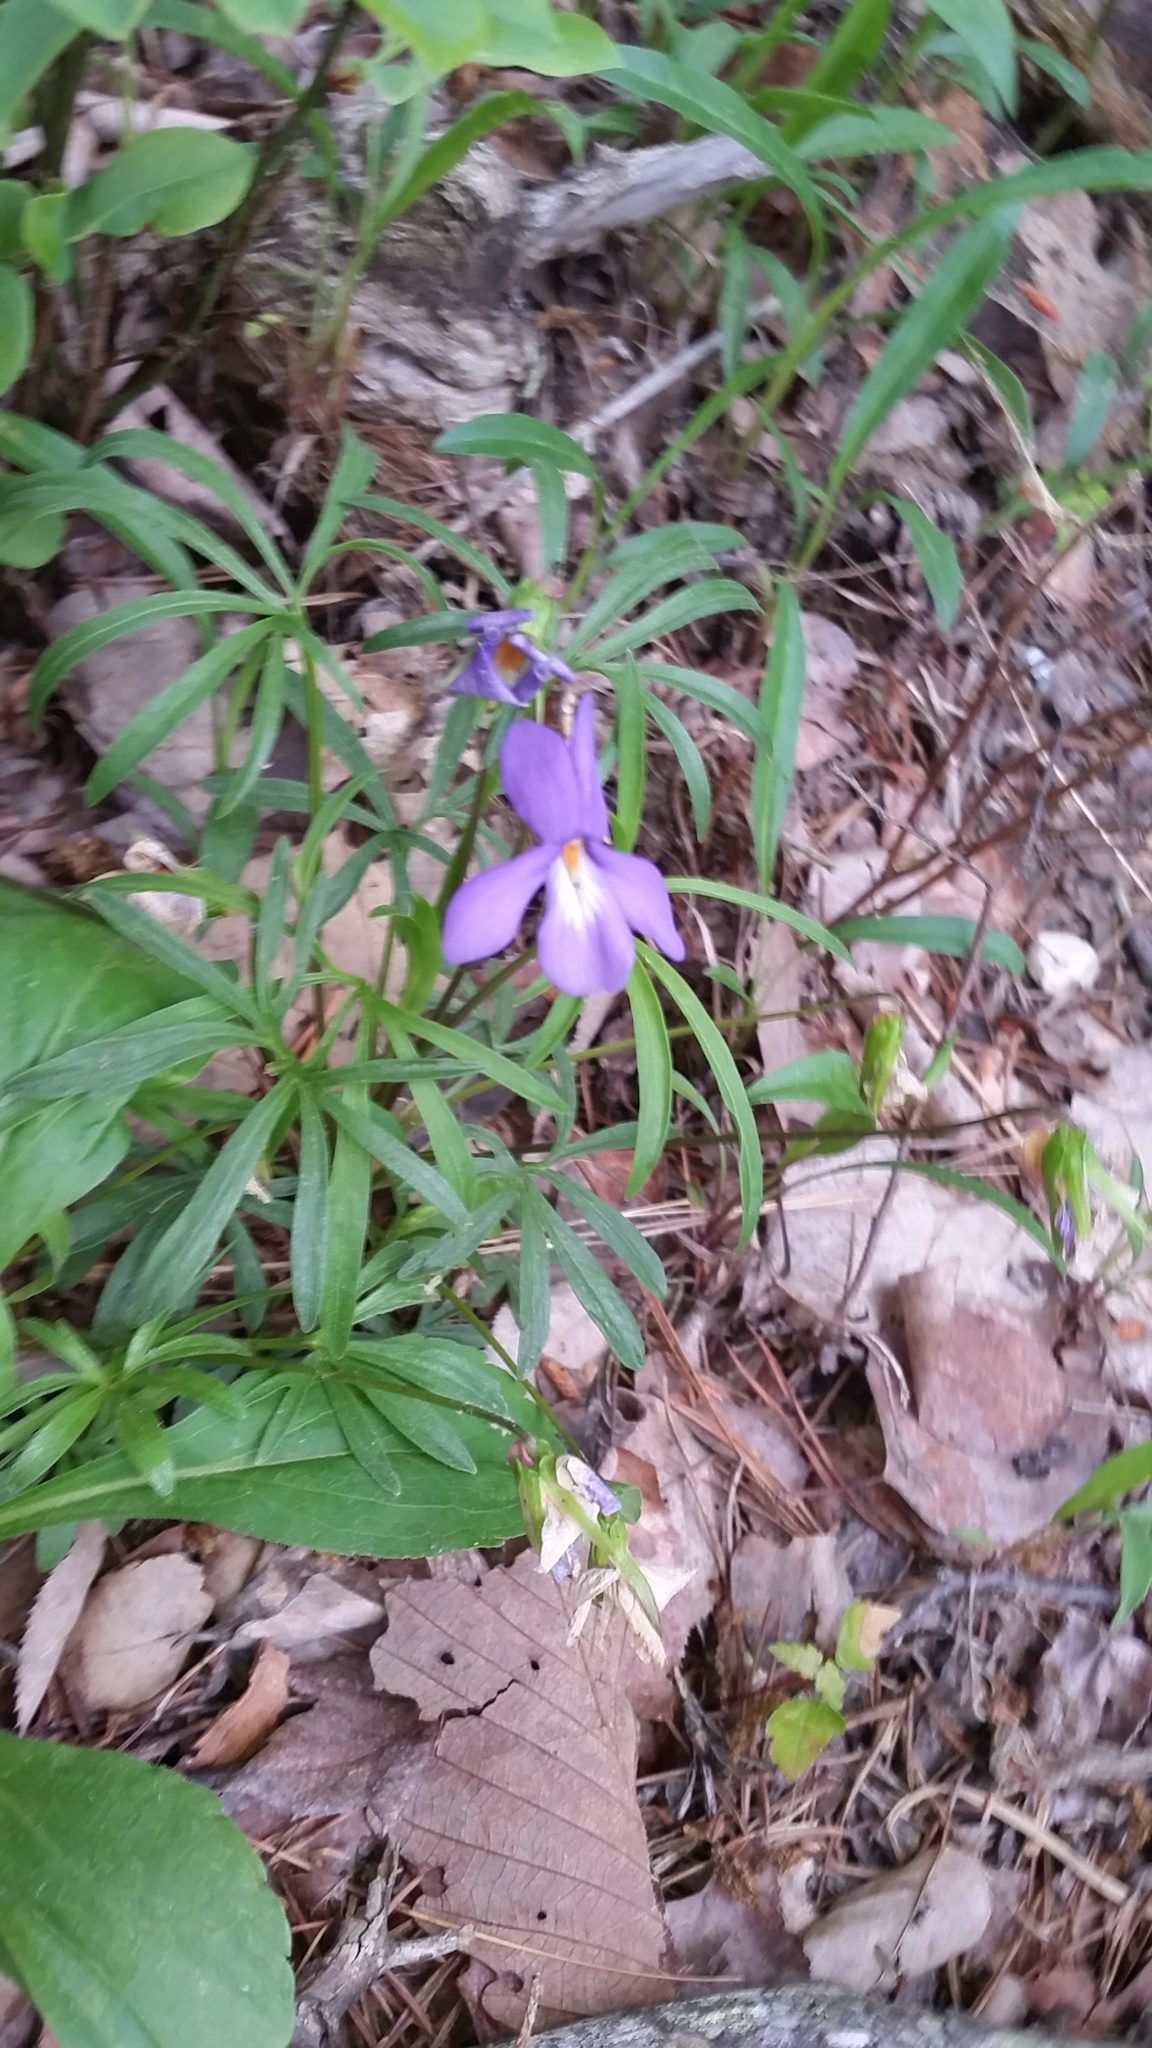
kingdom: Plantae
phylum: Tracheophyta
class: Magnoliopsida
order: Malpighiales
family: Violaceae
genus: Viola
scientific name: Viola pedata
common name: Pansy violet
